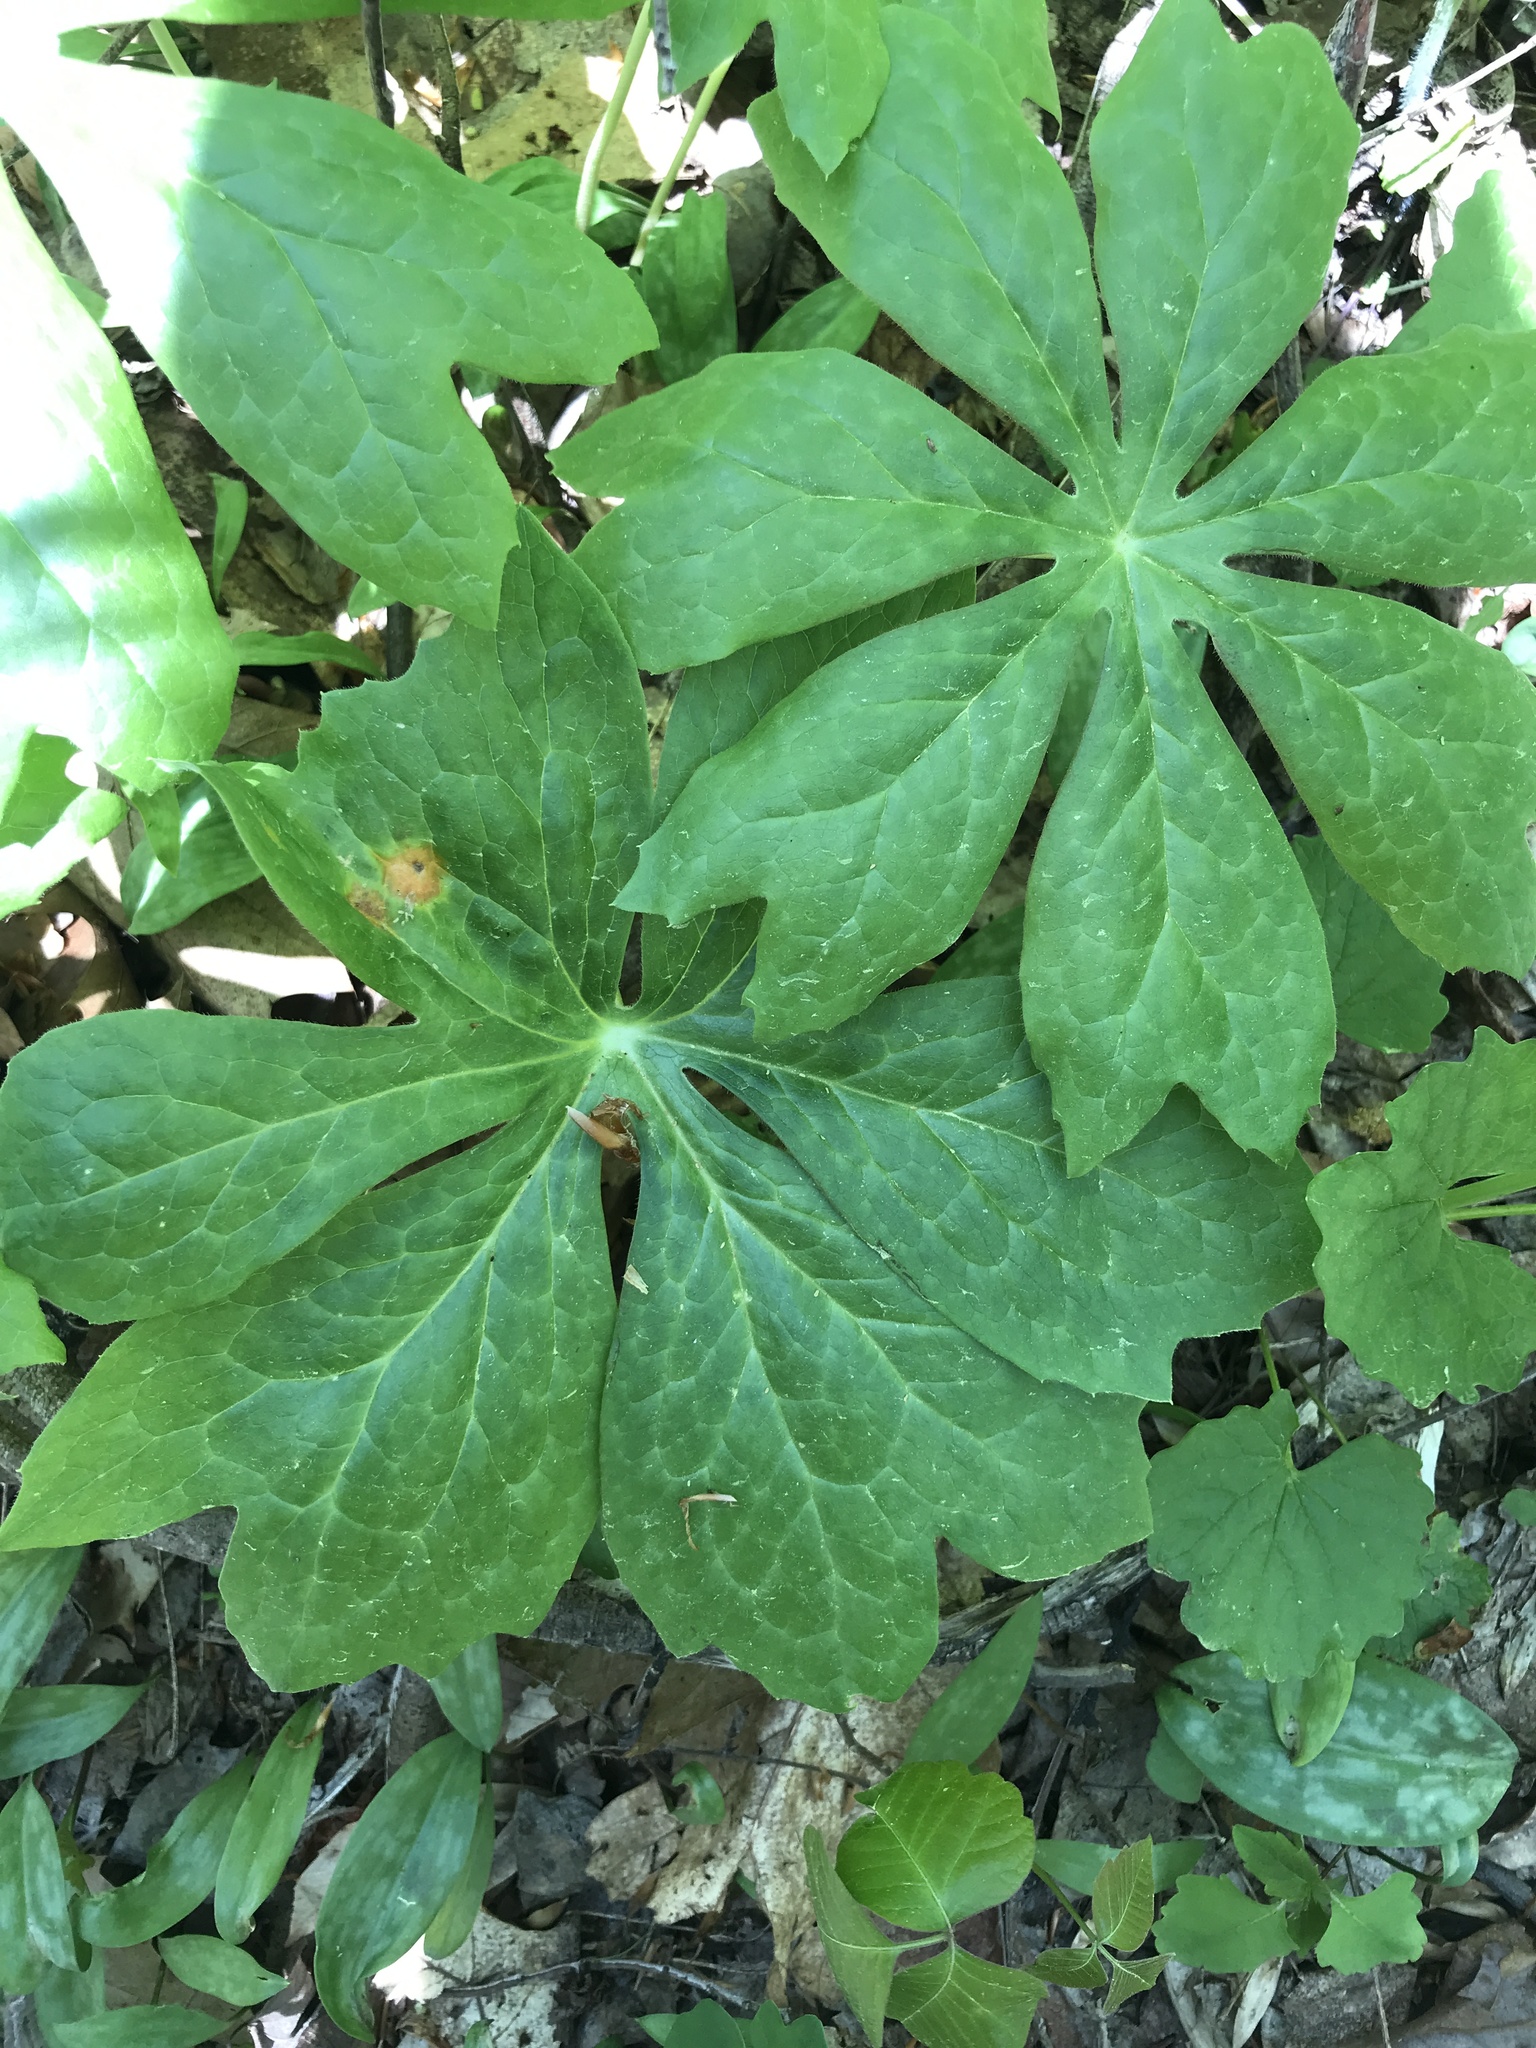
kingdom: Plantae
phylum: Tracheophyta
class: Magnoliopsida
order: Ranunculales
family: Berberidaceae
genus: Podophyllum
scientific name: Podophyllum peltatum
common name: Wild mandrake
